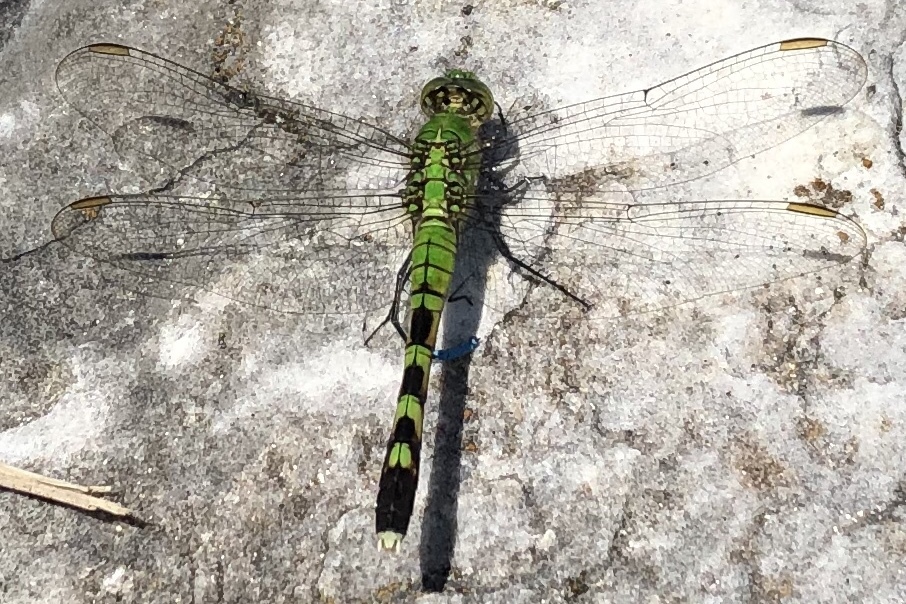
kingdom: Animalia
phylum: Arthropoda
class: Insecta
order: Odonata
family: Libellulidae
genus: Erythemis
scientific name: Erythemis simplicicollis
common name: Eastern pondhawk
